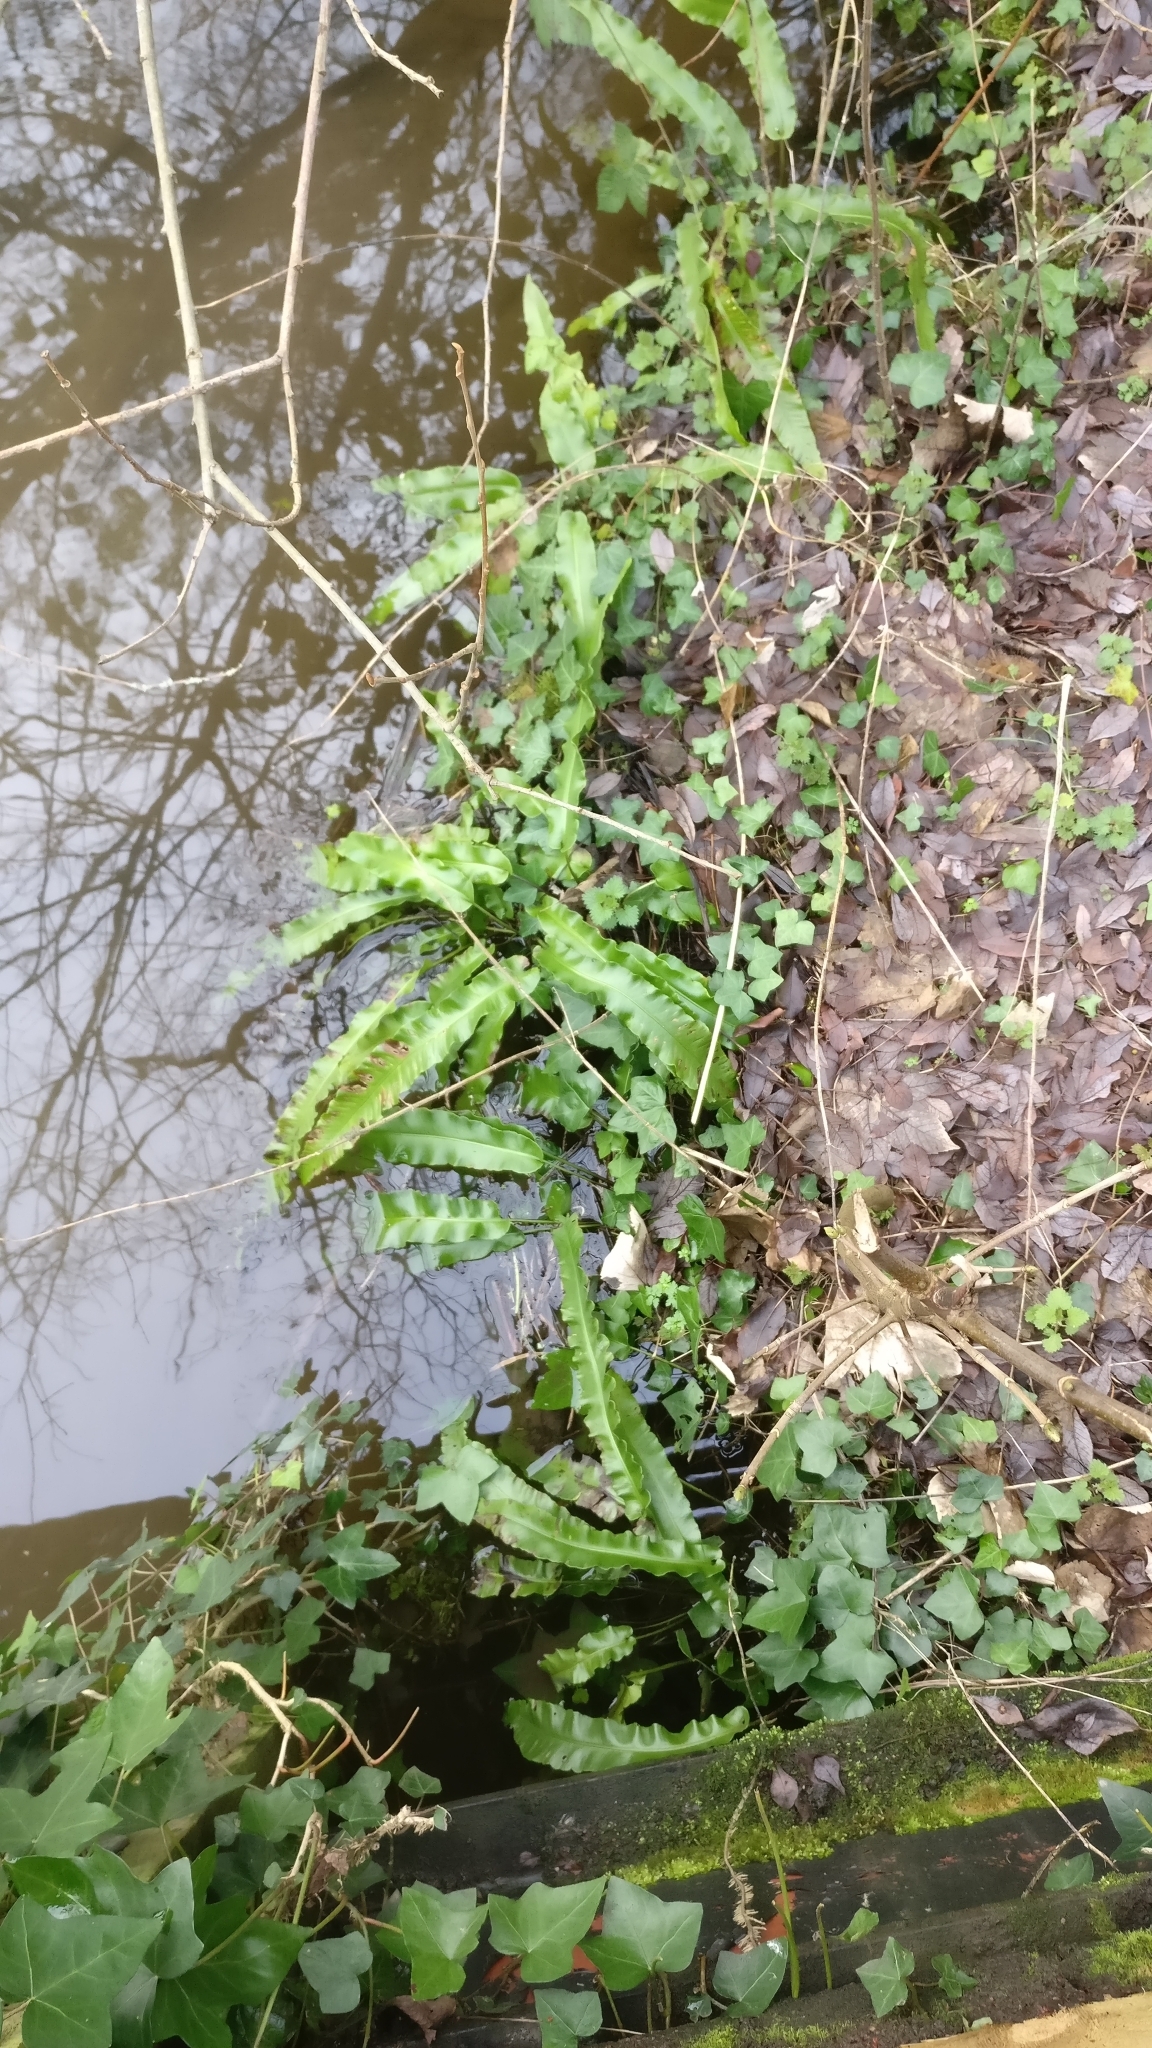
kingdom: Plantae
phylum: Tracheophyta
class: Polypodiopsida
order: Polypodiales
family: Aspleniaceae
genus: Asplenium
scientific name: Asplenium scolopendrium
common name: Hart's-tongue fern
